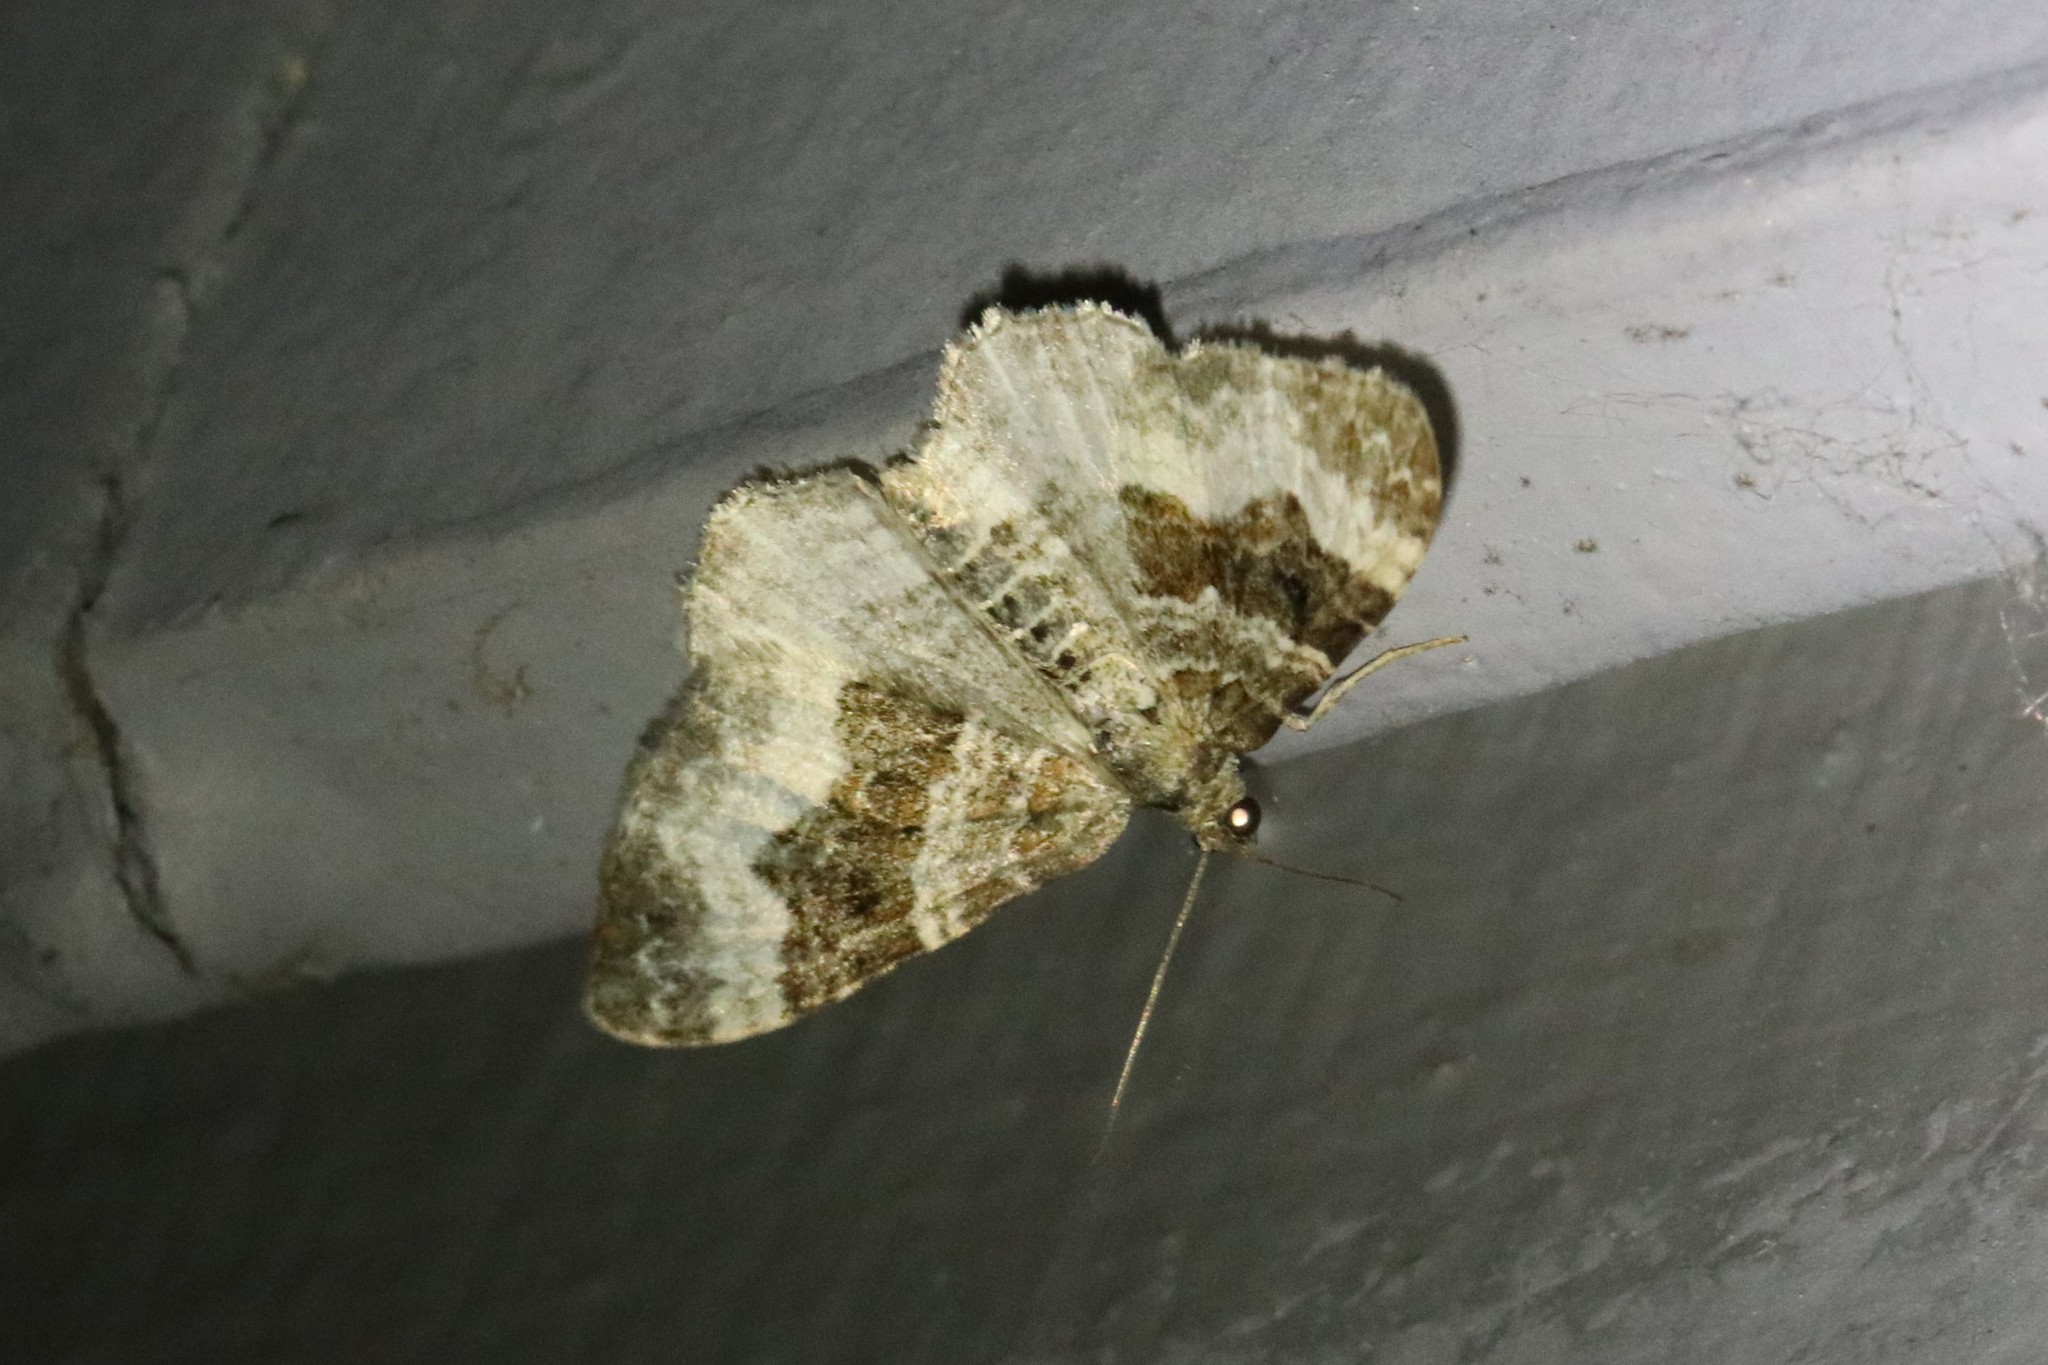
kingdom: Animalia
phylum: Arthropoda
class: Insecta
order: Lepidoptera
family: Geometridae
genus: Epirrhoe
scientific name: Epirrhoe alternata
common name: Common carpet
